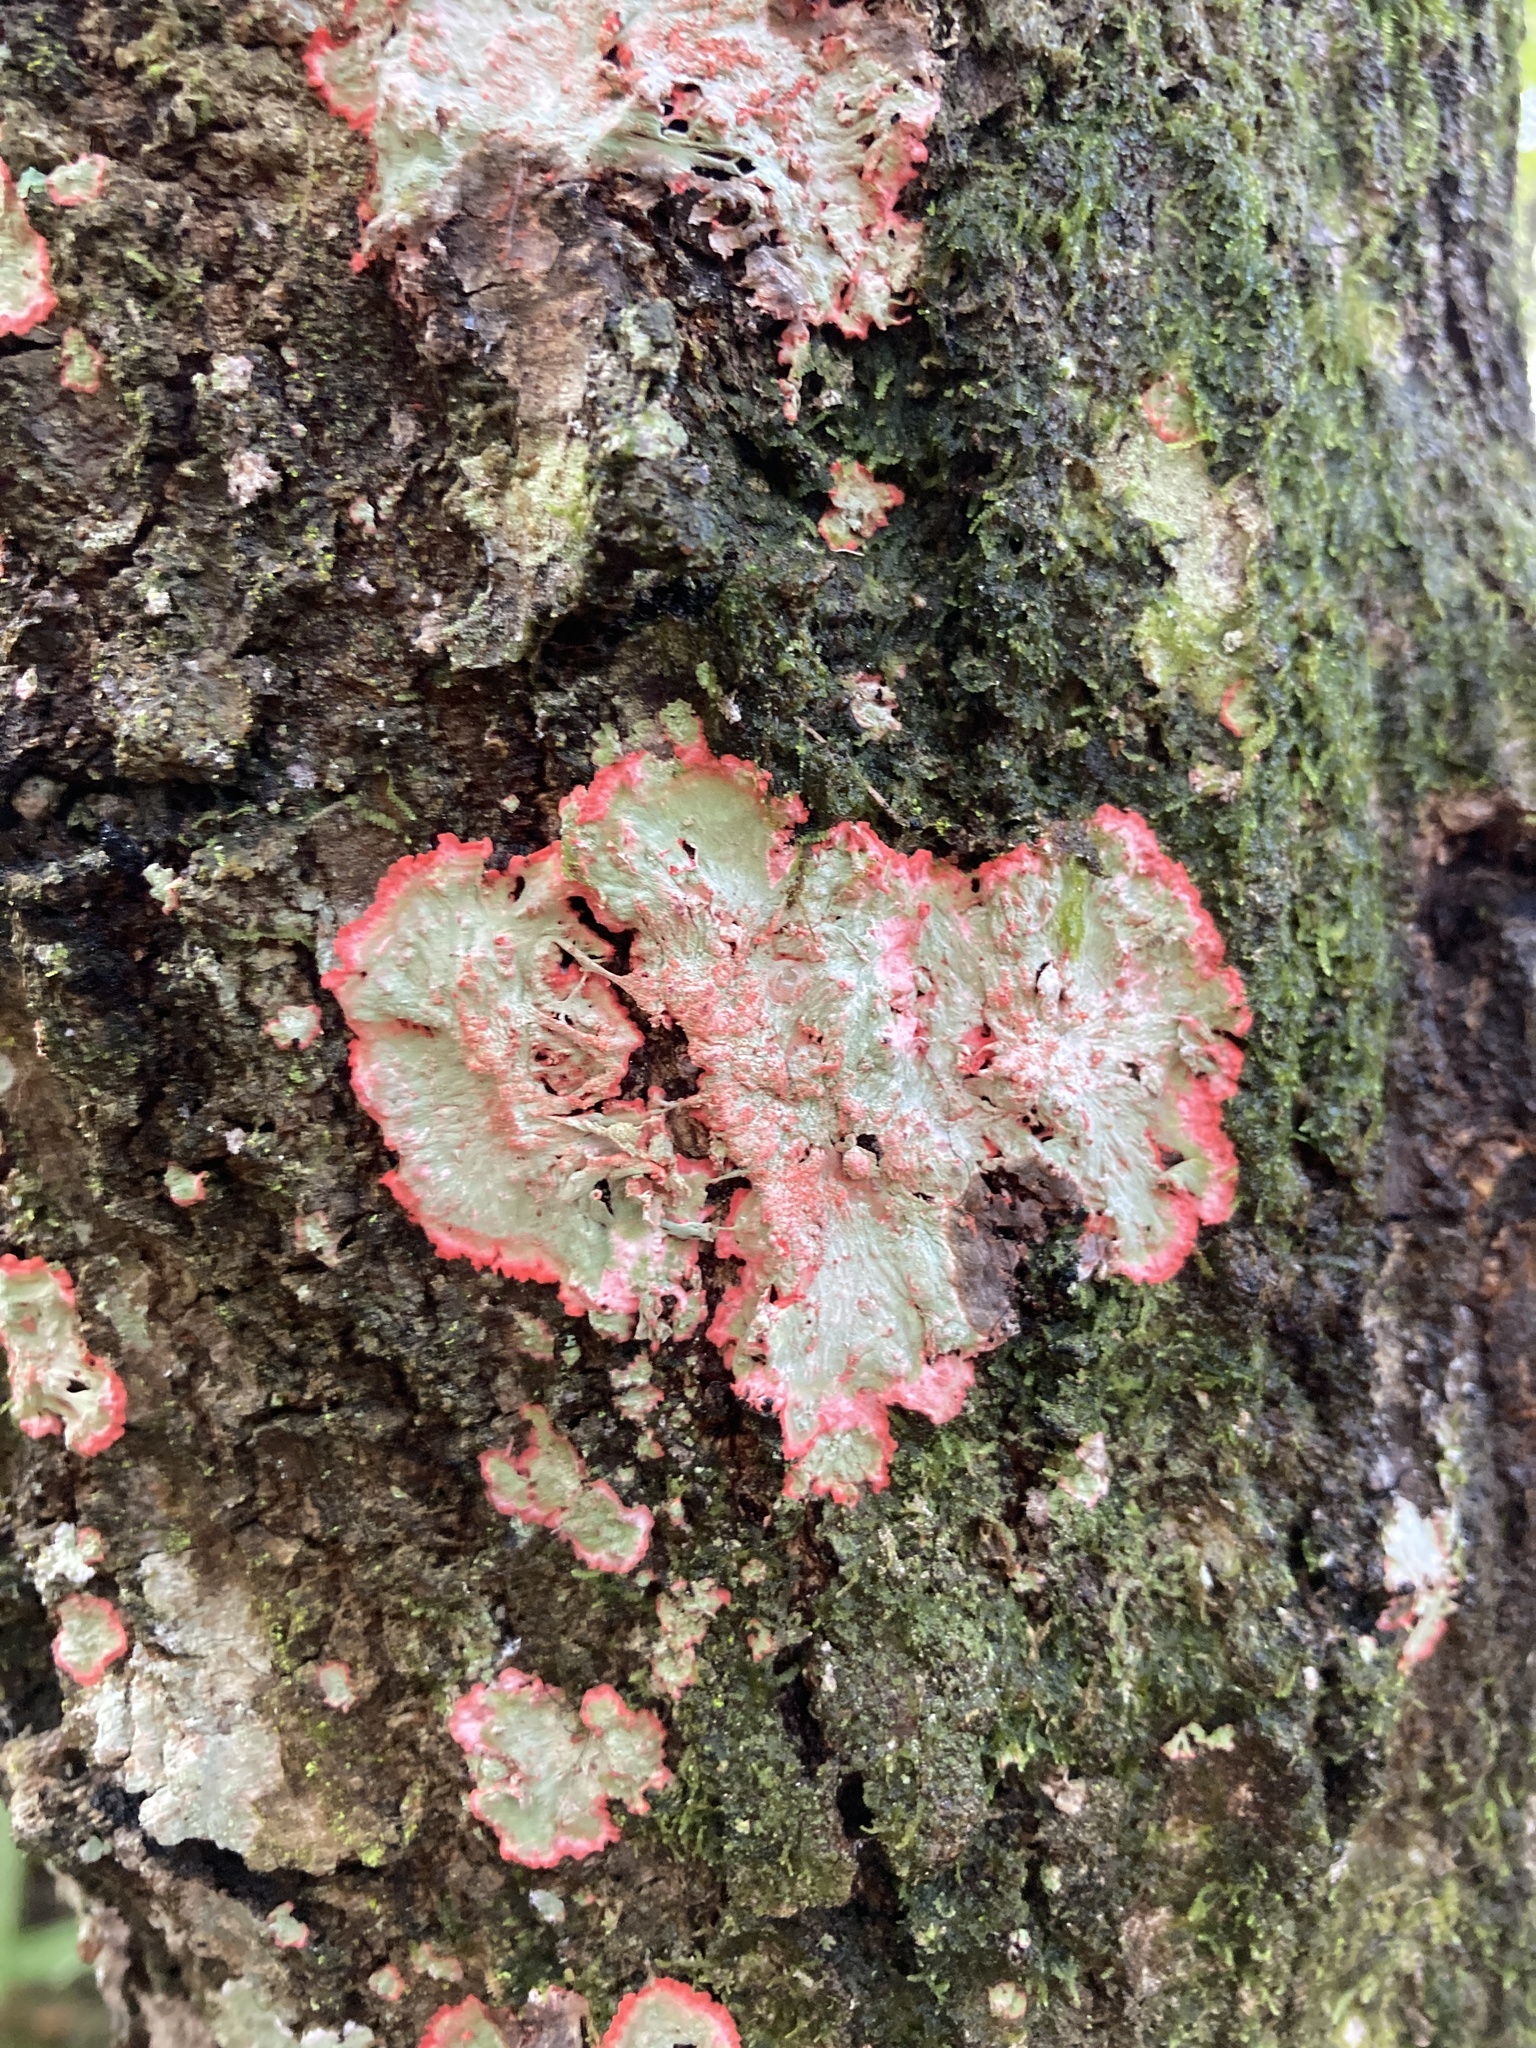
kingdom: Fungi
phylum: Ascomycota
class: Arthoniomycetes
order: Arthoniales
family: Arthoniaceae
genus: Herpothallon
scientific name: Herpothallon rubrocinctum
